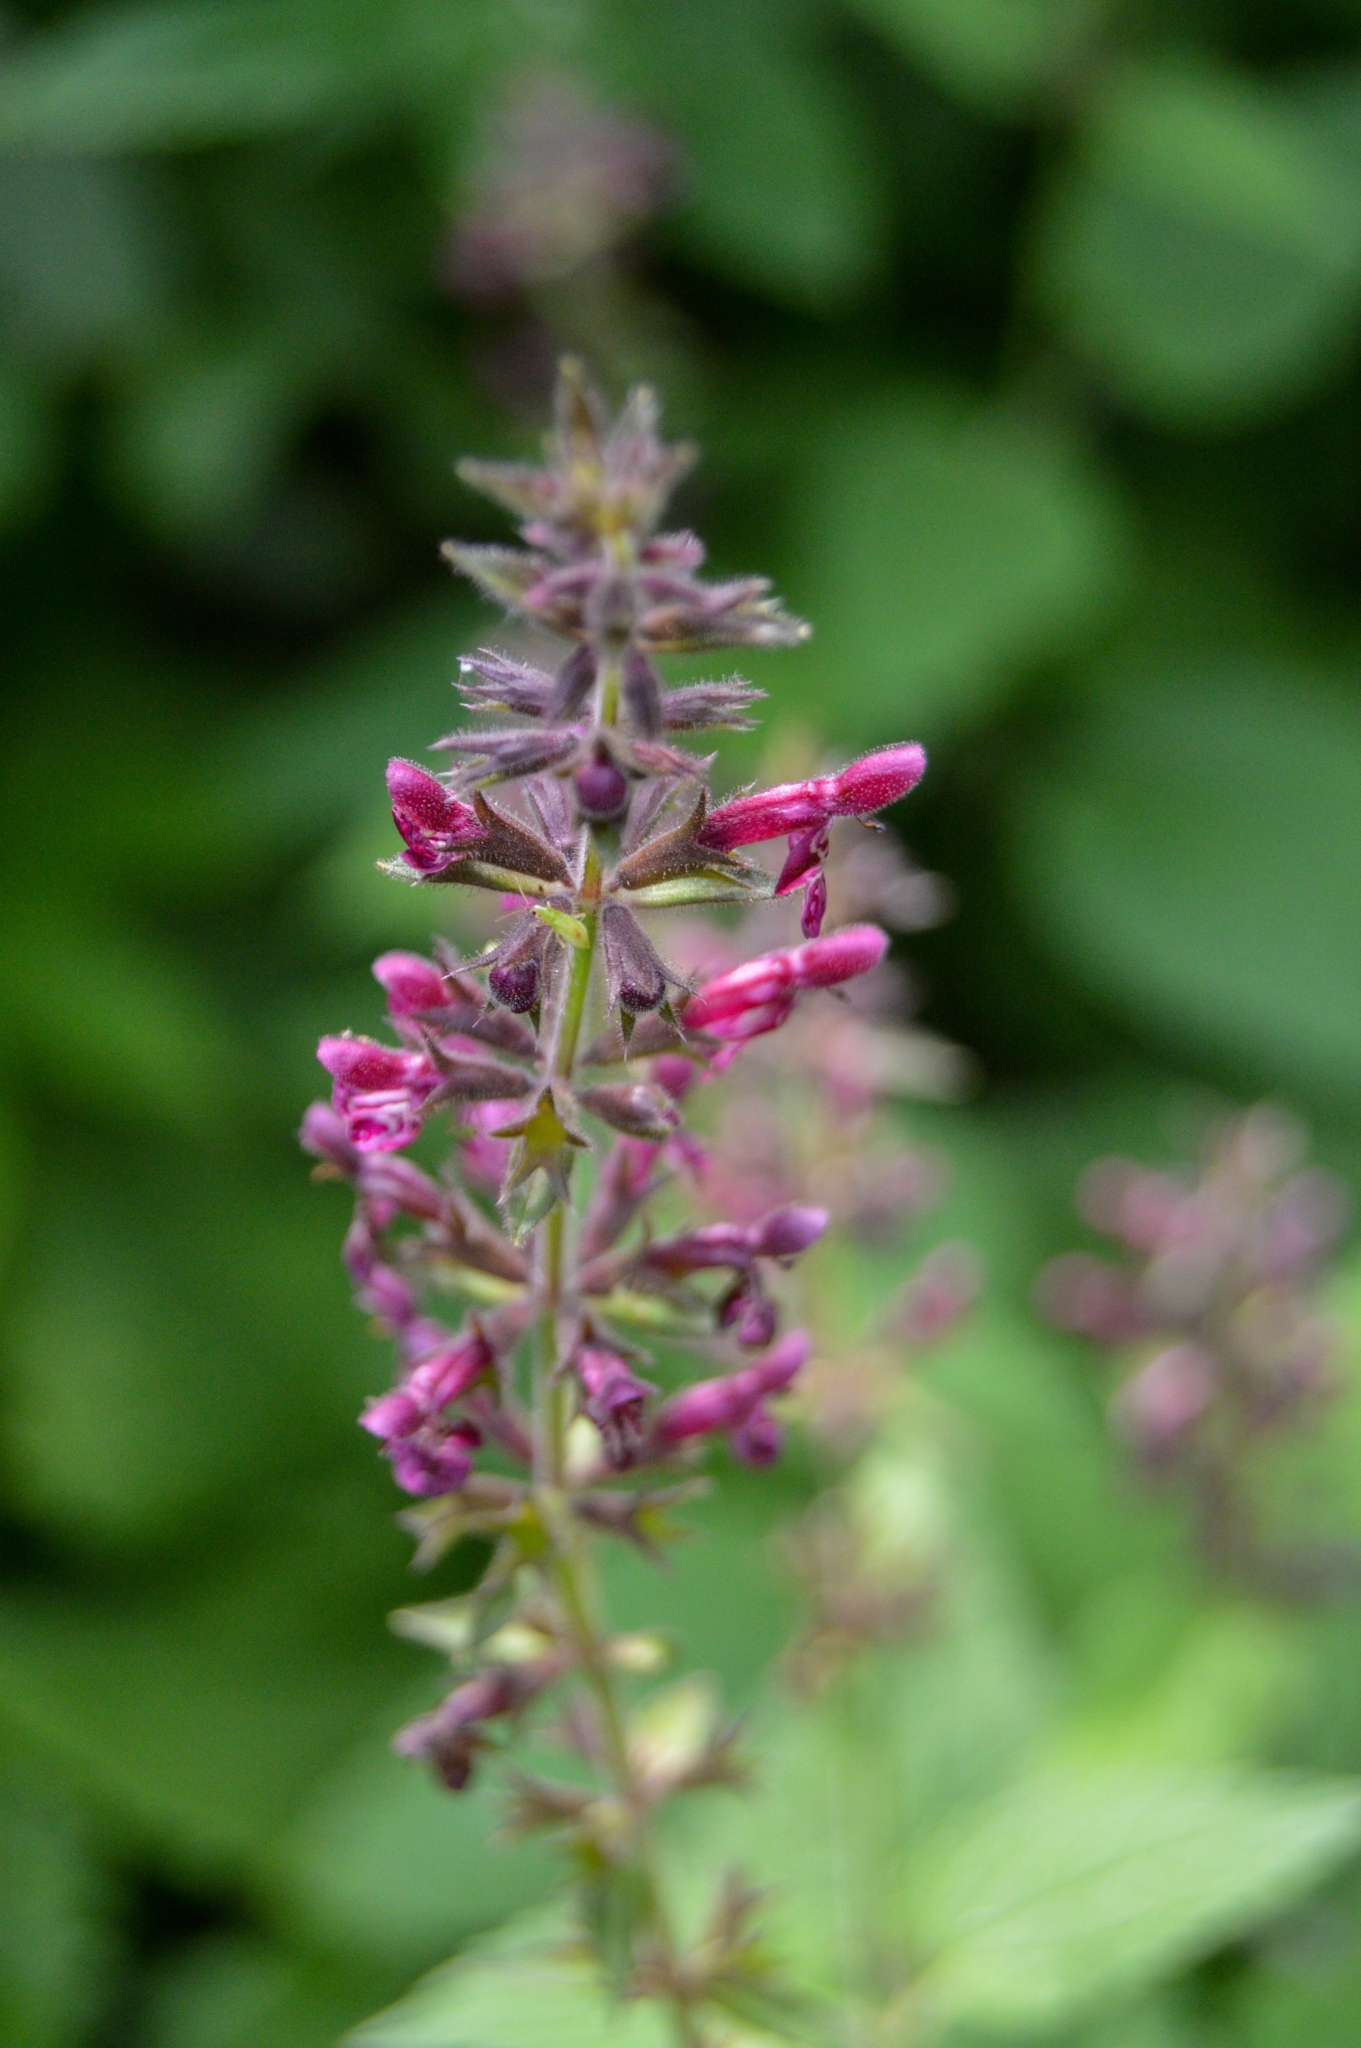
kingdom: Plantae
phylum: Tracheophyta
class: Magnoliopsida
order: Lamiales
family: Lamiaceae
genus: Stachys
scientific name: Stachys sylvatica
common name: Hedge woundwort
